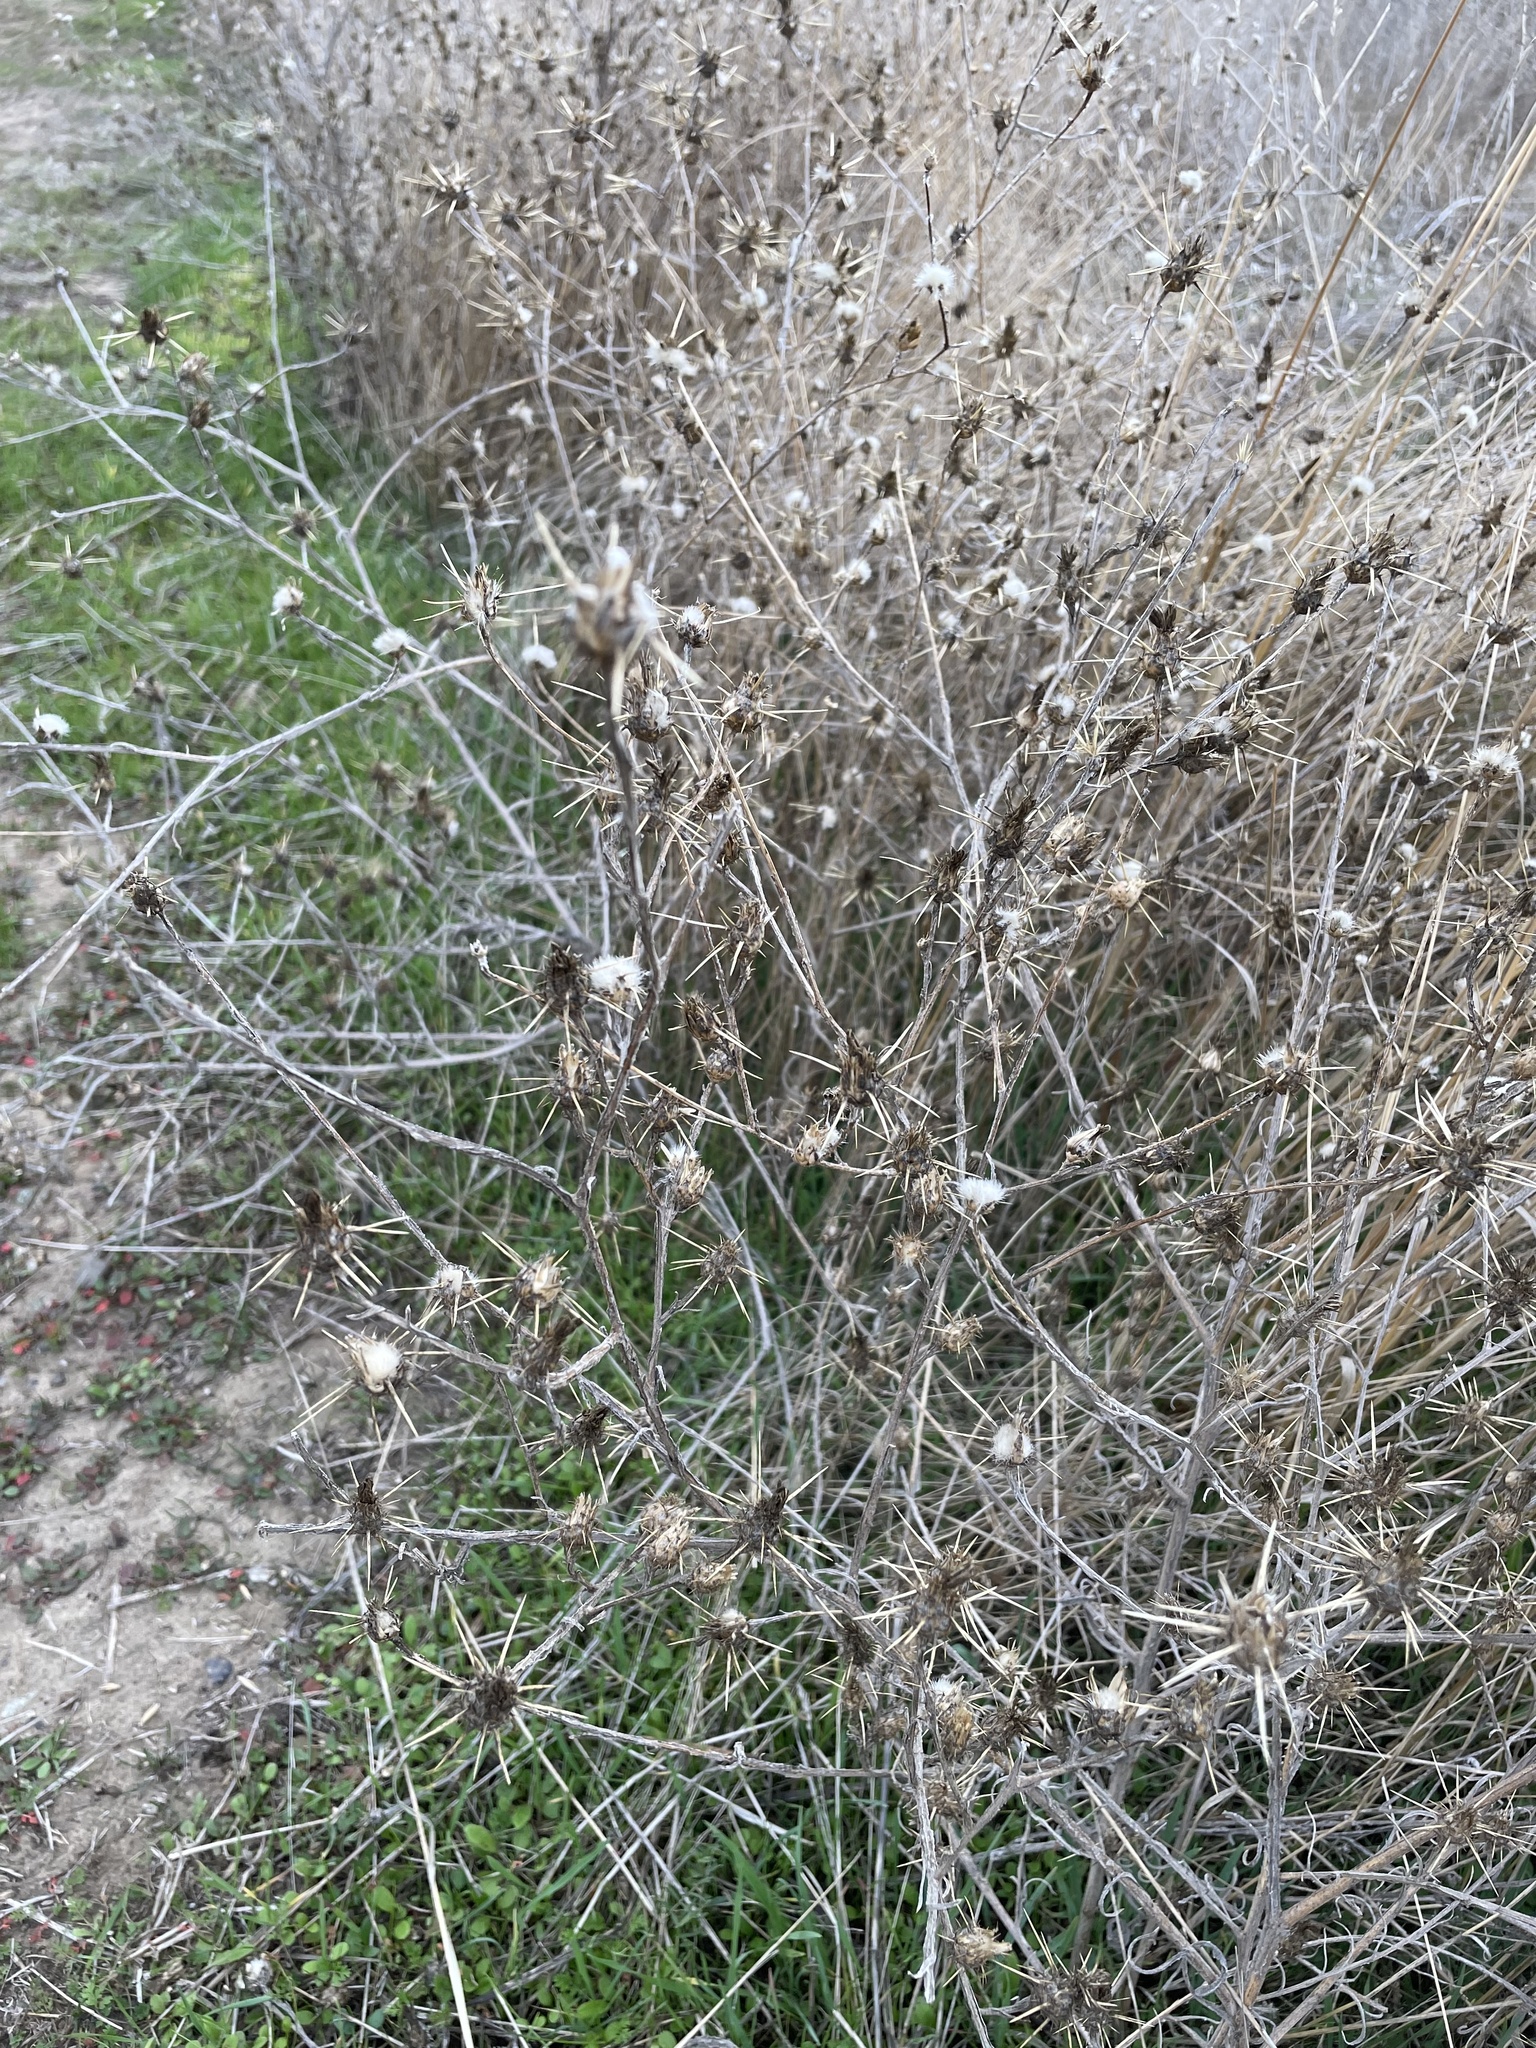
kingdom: Plantae
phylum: Tracheophyta
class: Magnoliopsida
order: Asterales
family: Asteraceae
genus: Centaurea
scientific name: Centaurea solstitialis
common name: Yellow star-thistle
